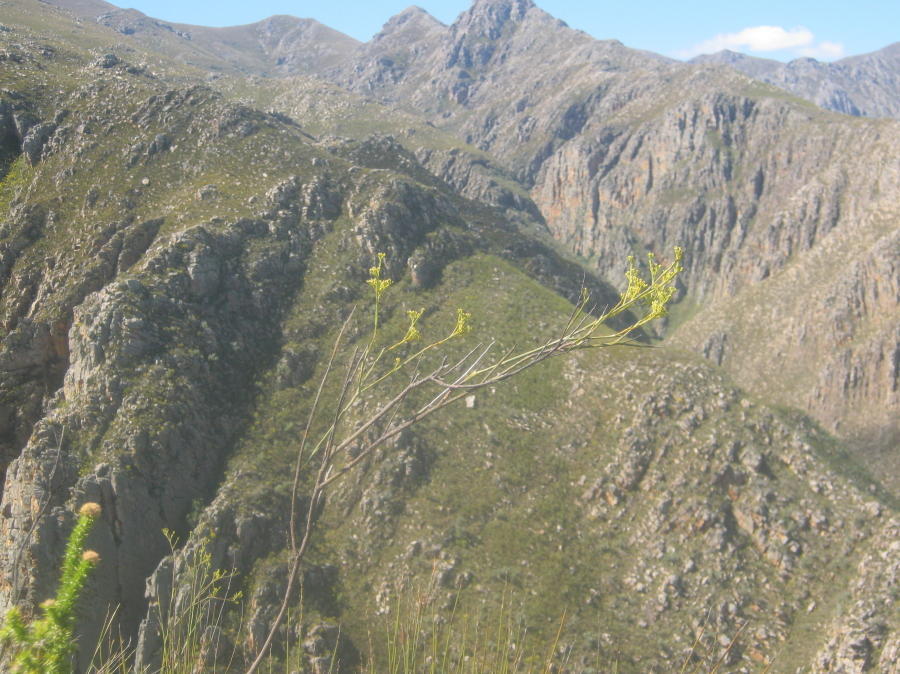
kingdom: Plantae
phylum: Tracheophyta
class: Magnoliopsida
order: Santalales
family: Thesiaceae
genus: Thesium
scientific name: Thesium strictum
